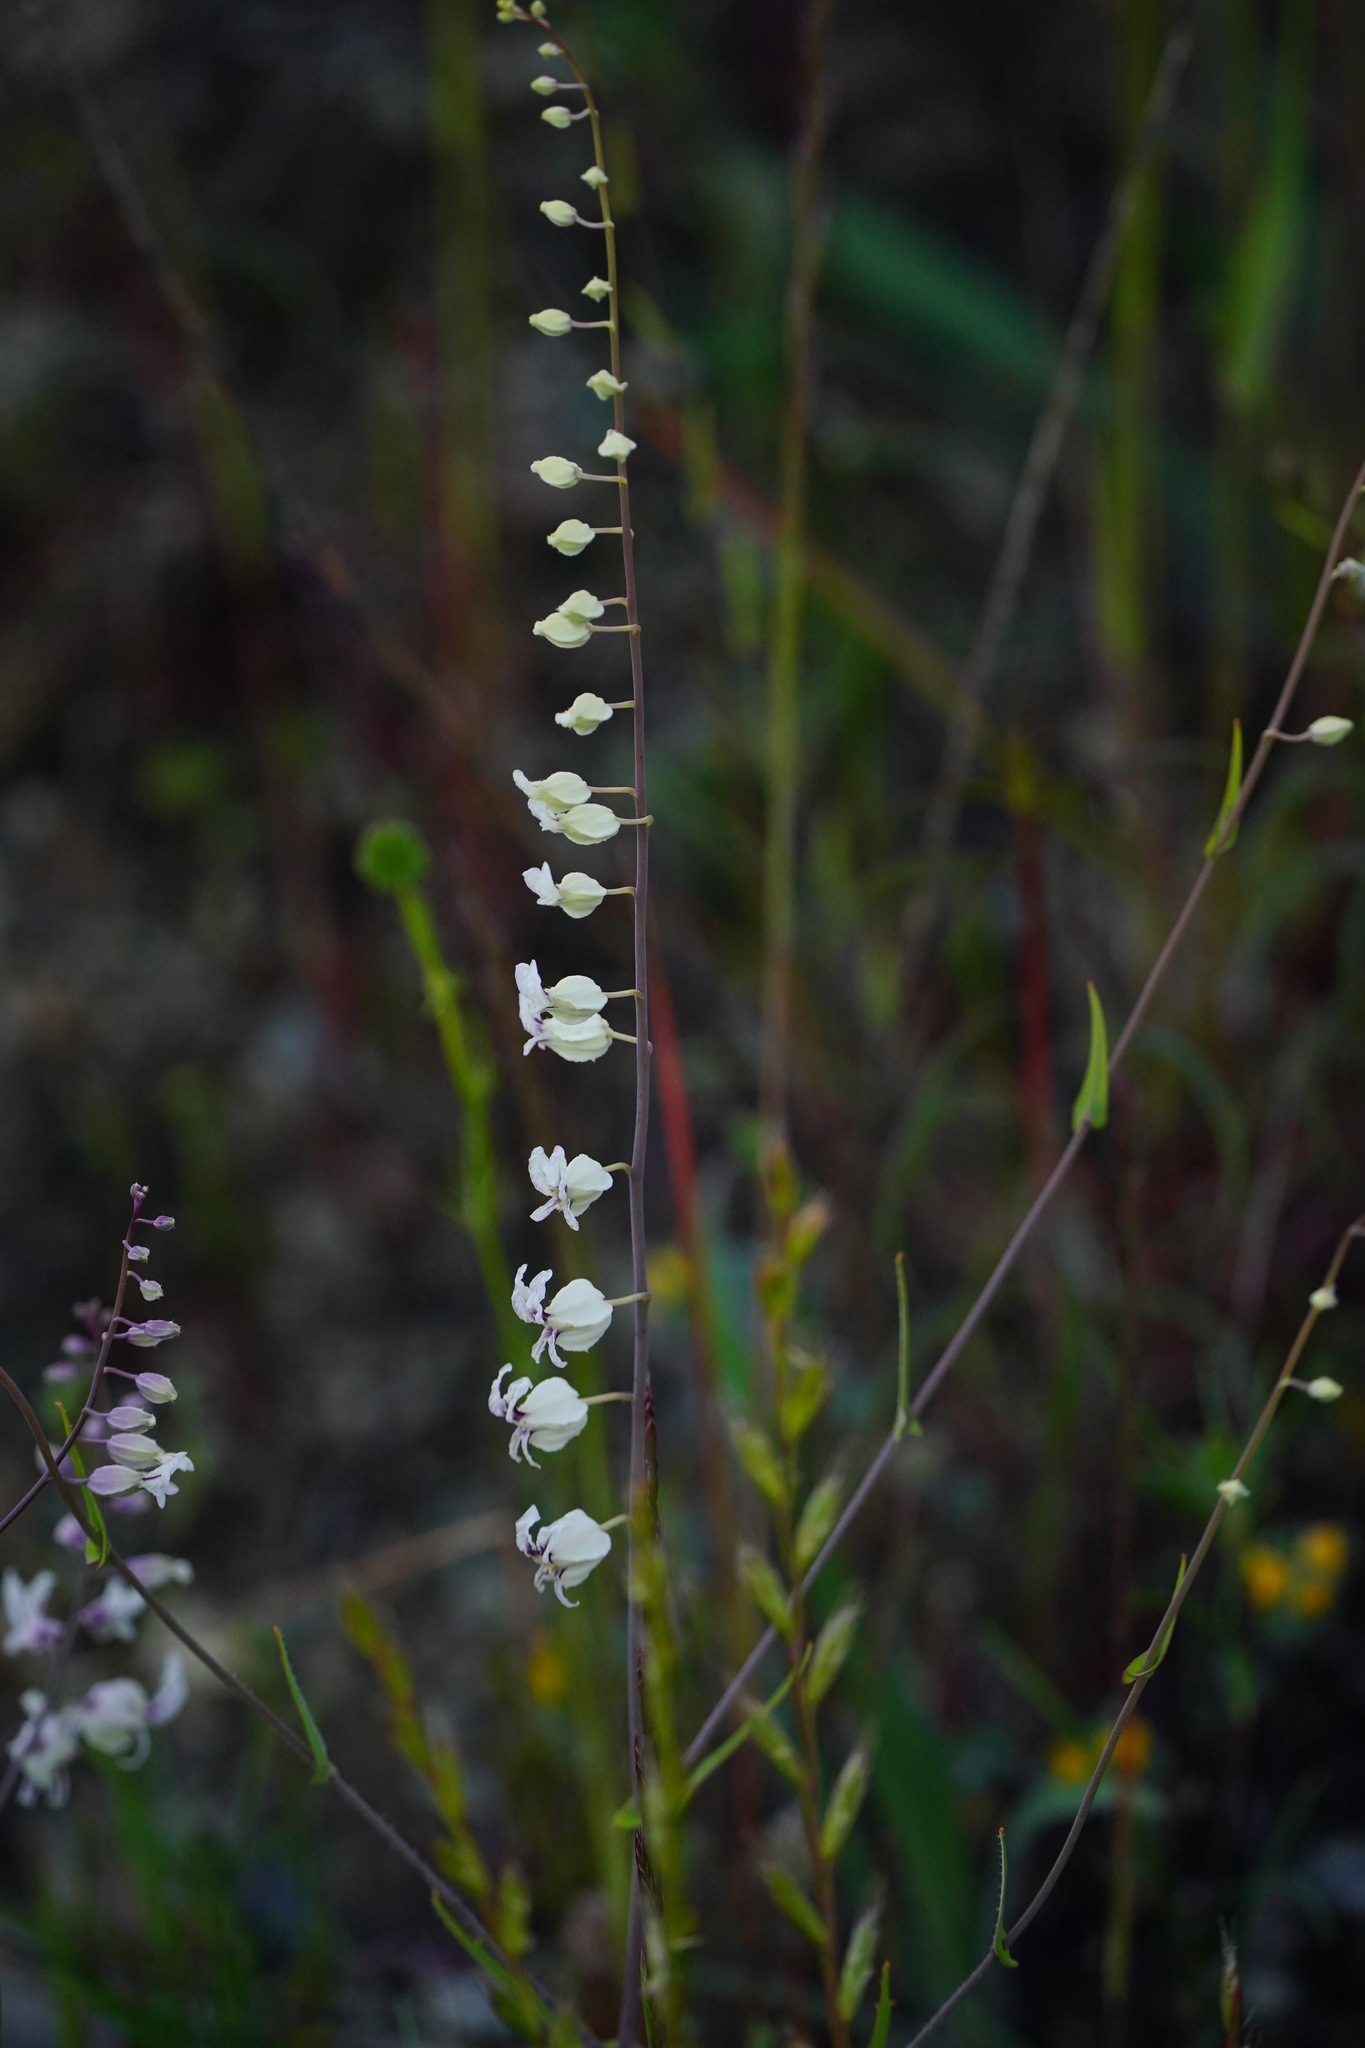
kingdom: Plantae
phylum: Tracheophyta
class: Magnoliopsida
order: Brassicales
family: Brassicaceae
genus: Streptanthus
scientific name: Streptanthus glandulosus
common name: Jewel-flower
